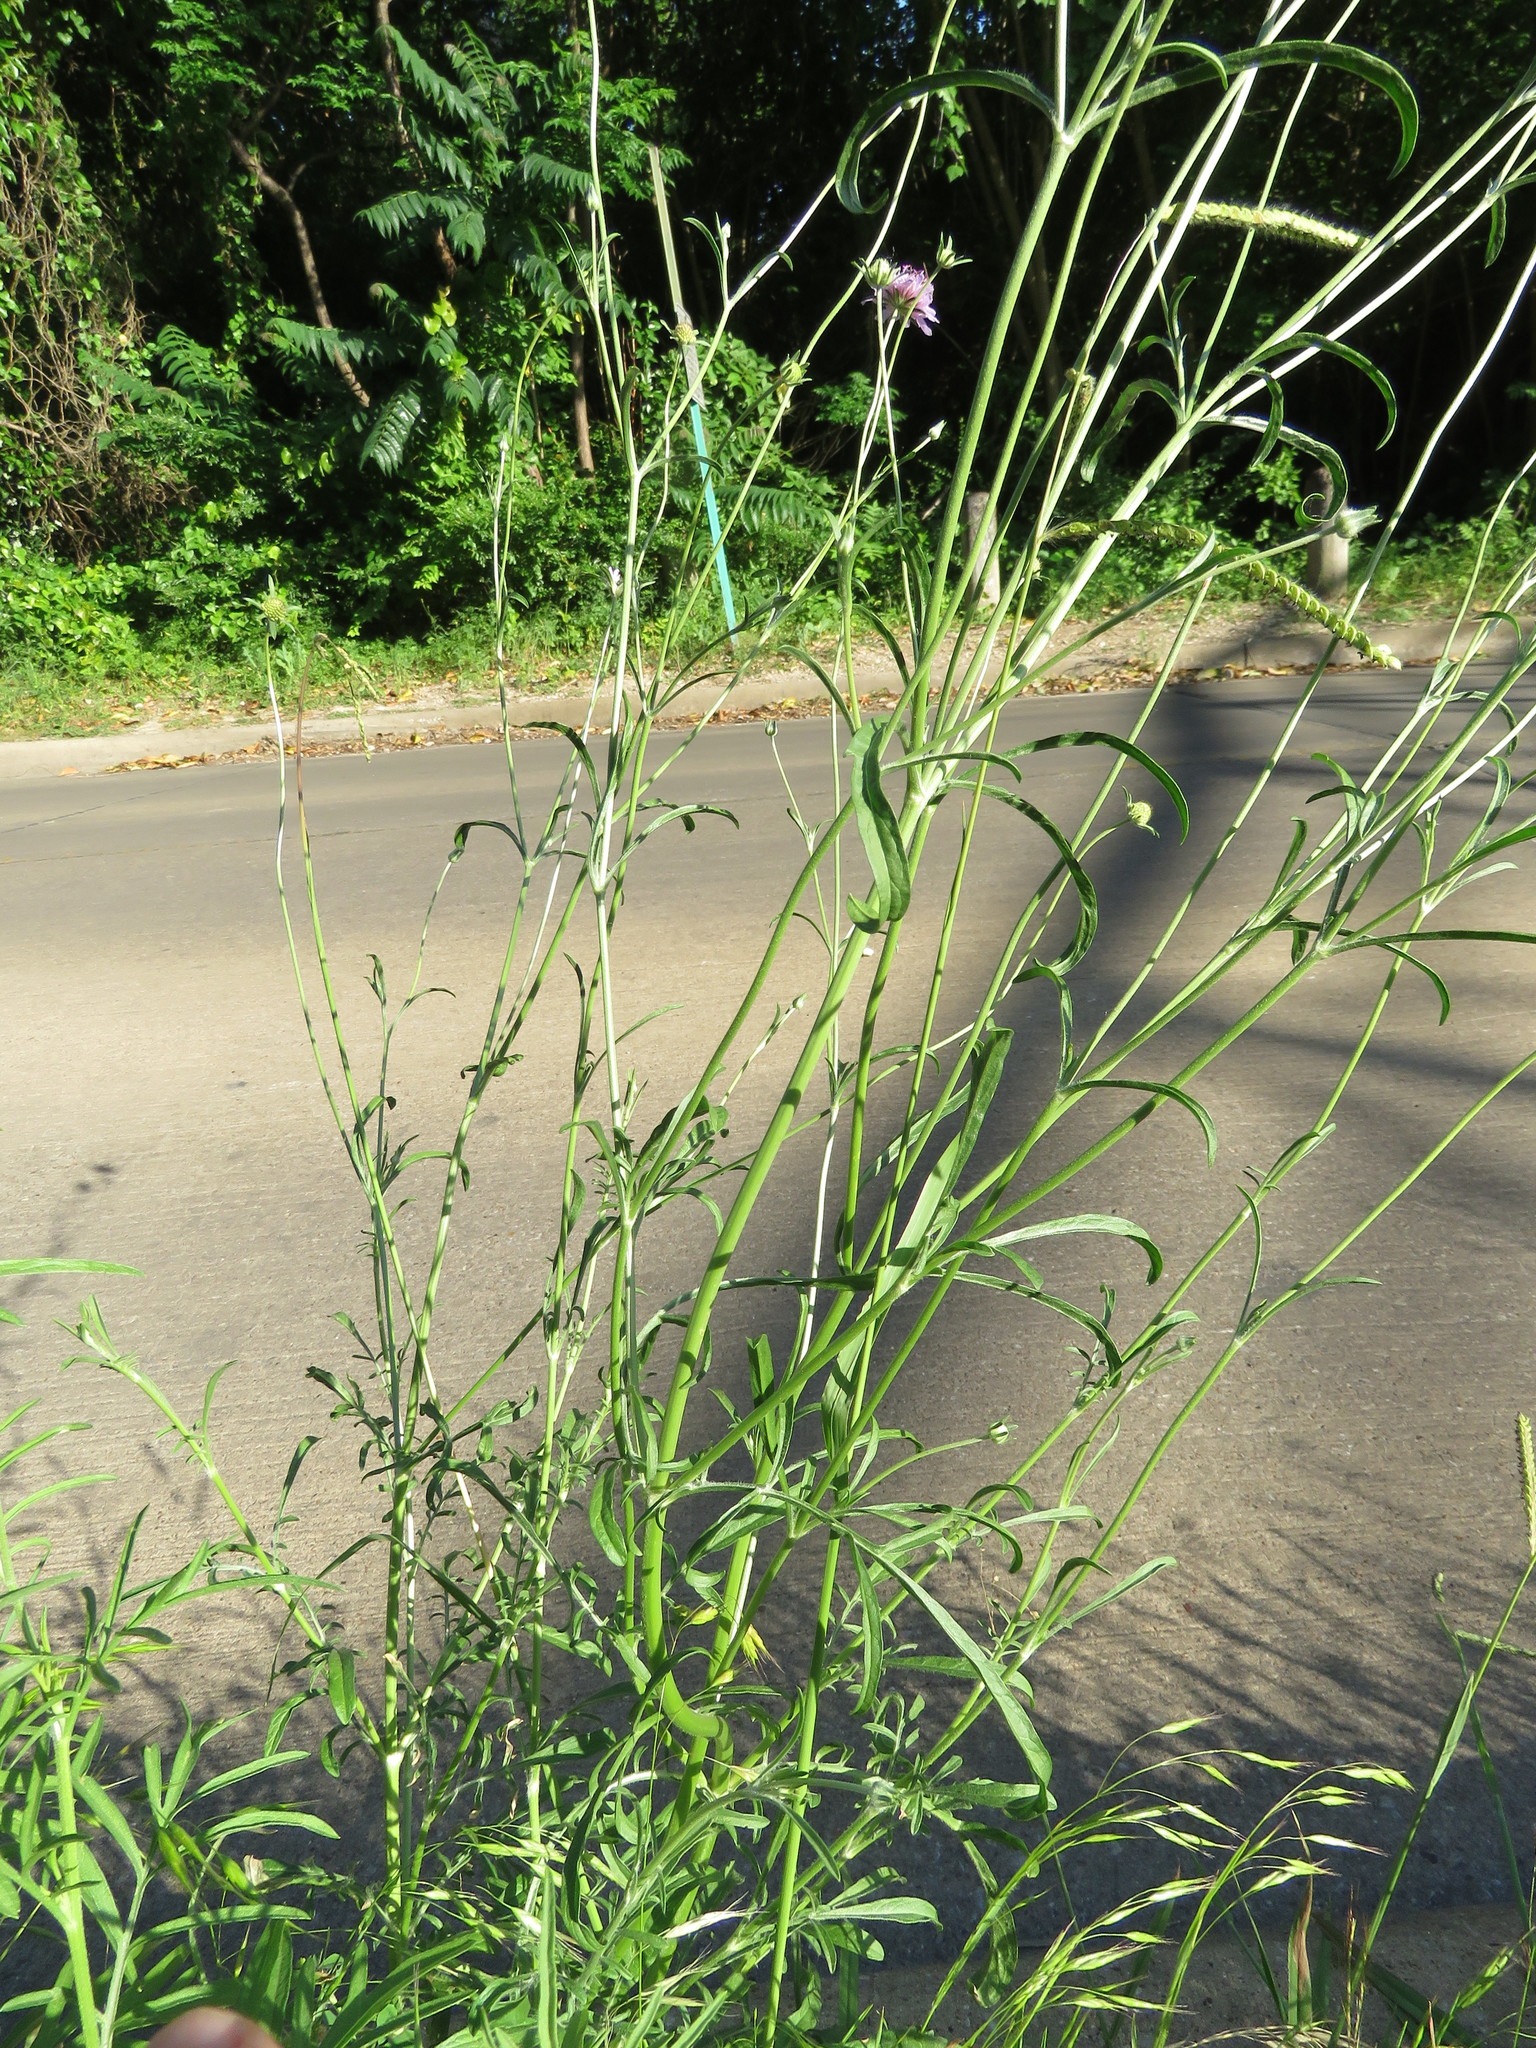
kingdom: Plantae
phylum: Tracheophyta
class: Magnoliopsida
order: Dipsacales
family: Caprifoliaceae
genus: Sixalix
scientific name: Sixalix atropurpurea
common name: Sweet scabious
